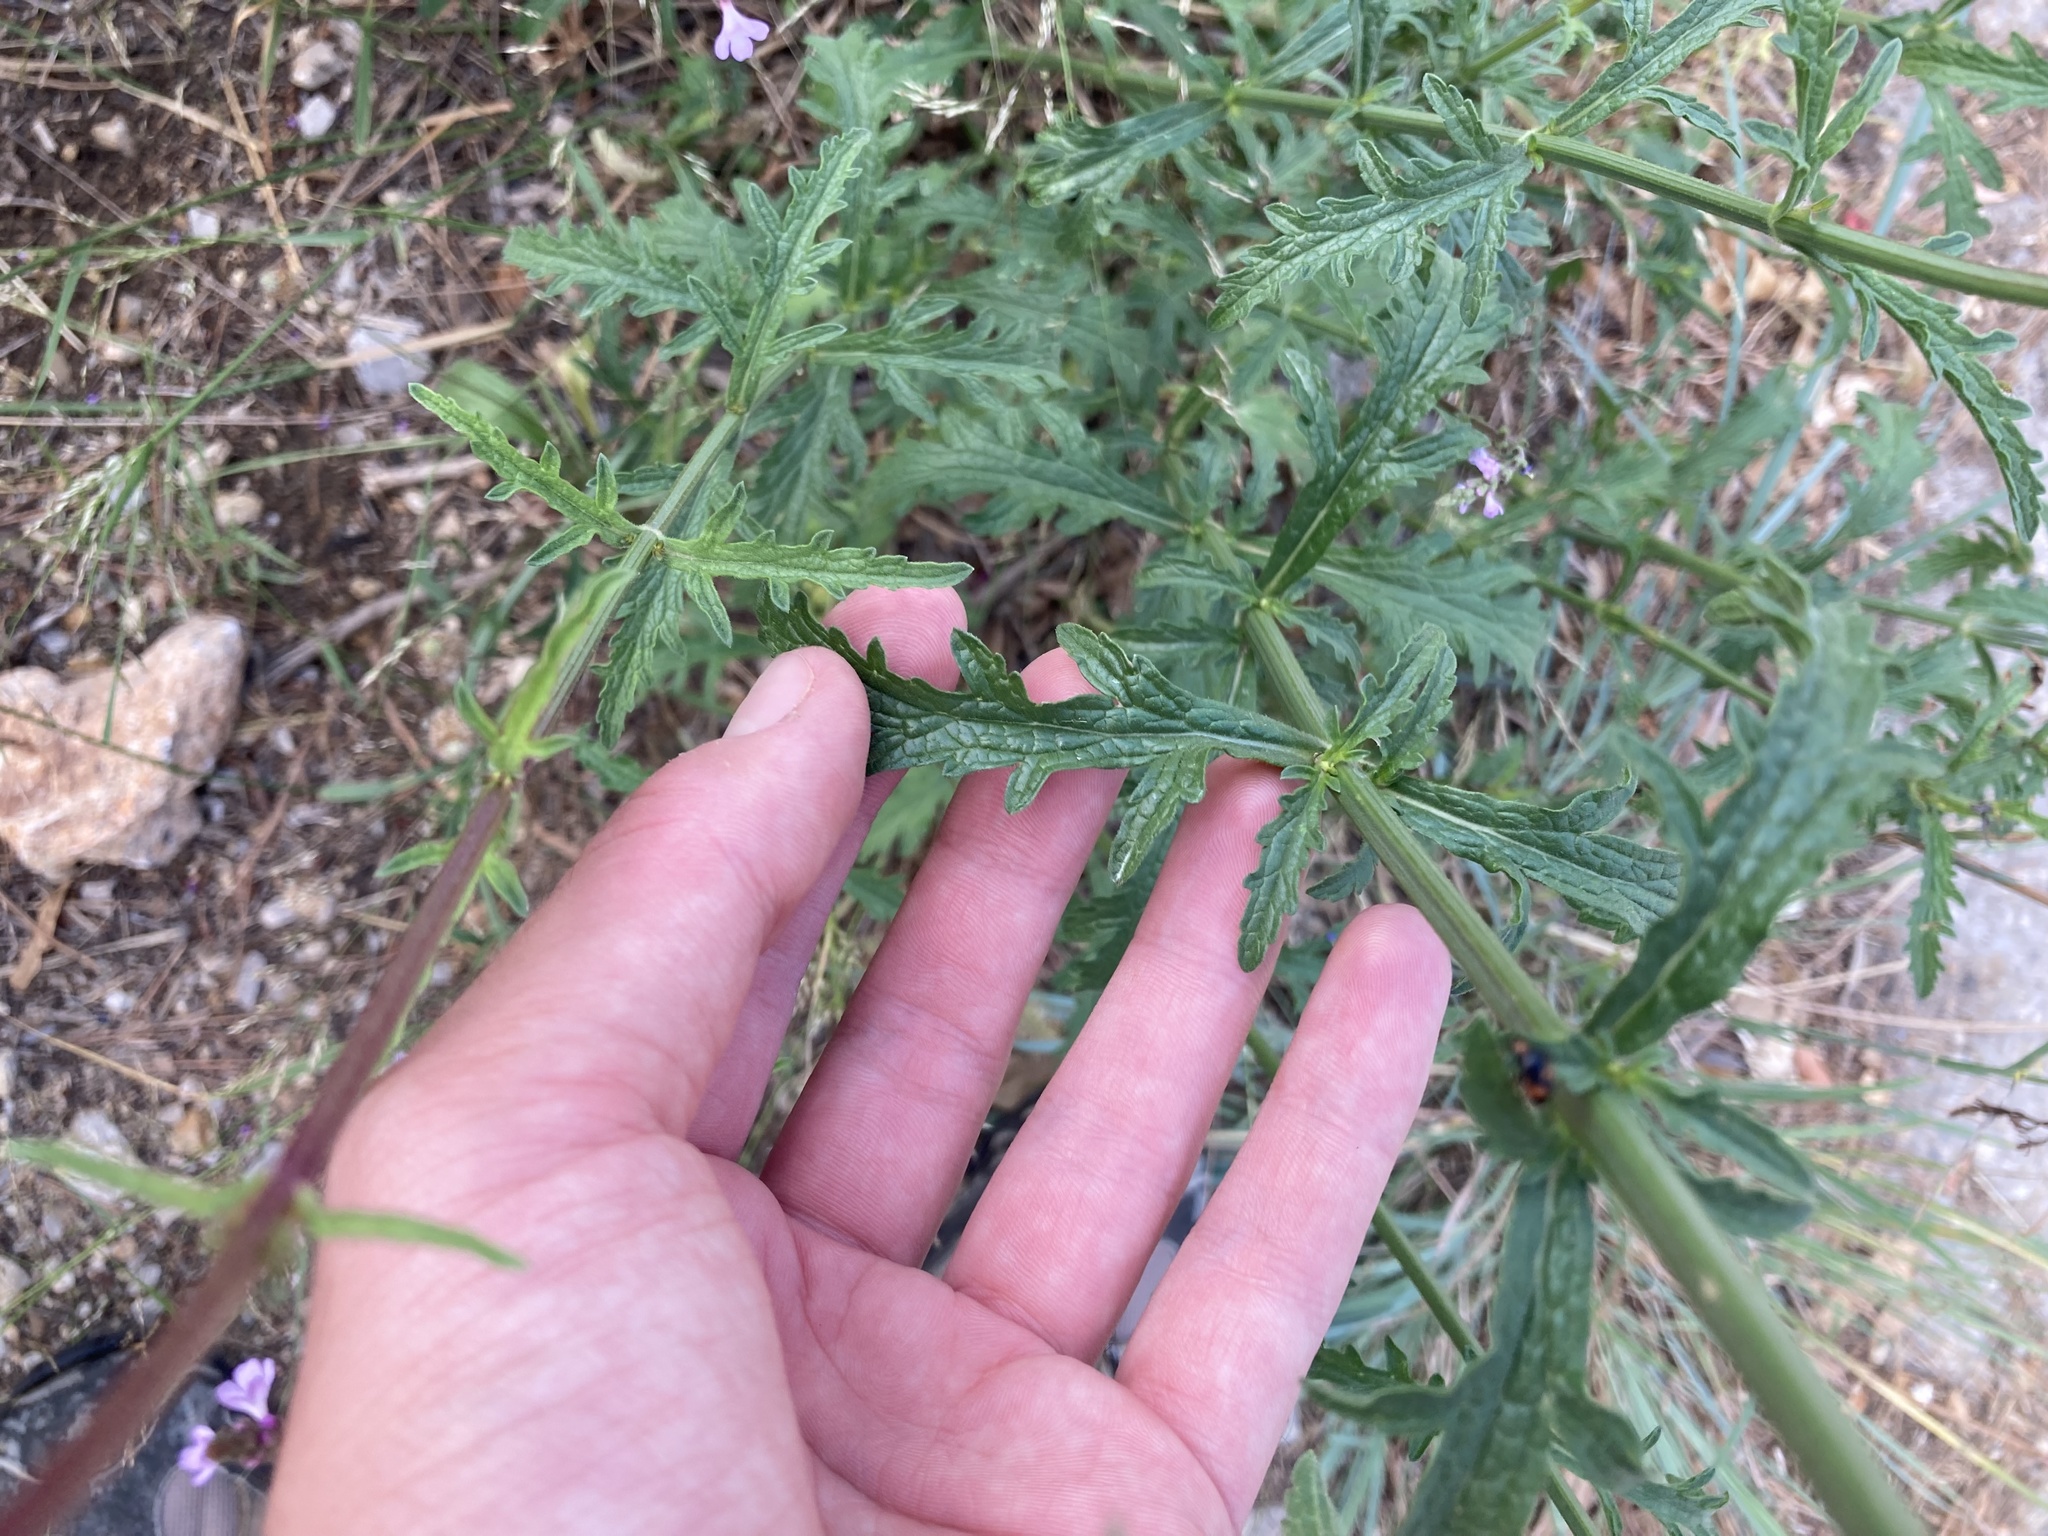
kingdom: Plantae
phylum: Tracheophyta
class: Magnoliopsida
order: Lamiales
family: Verbenaceae
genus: Verbena
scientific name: Verbena officinalis
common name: Vervain
